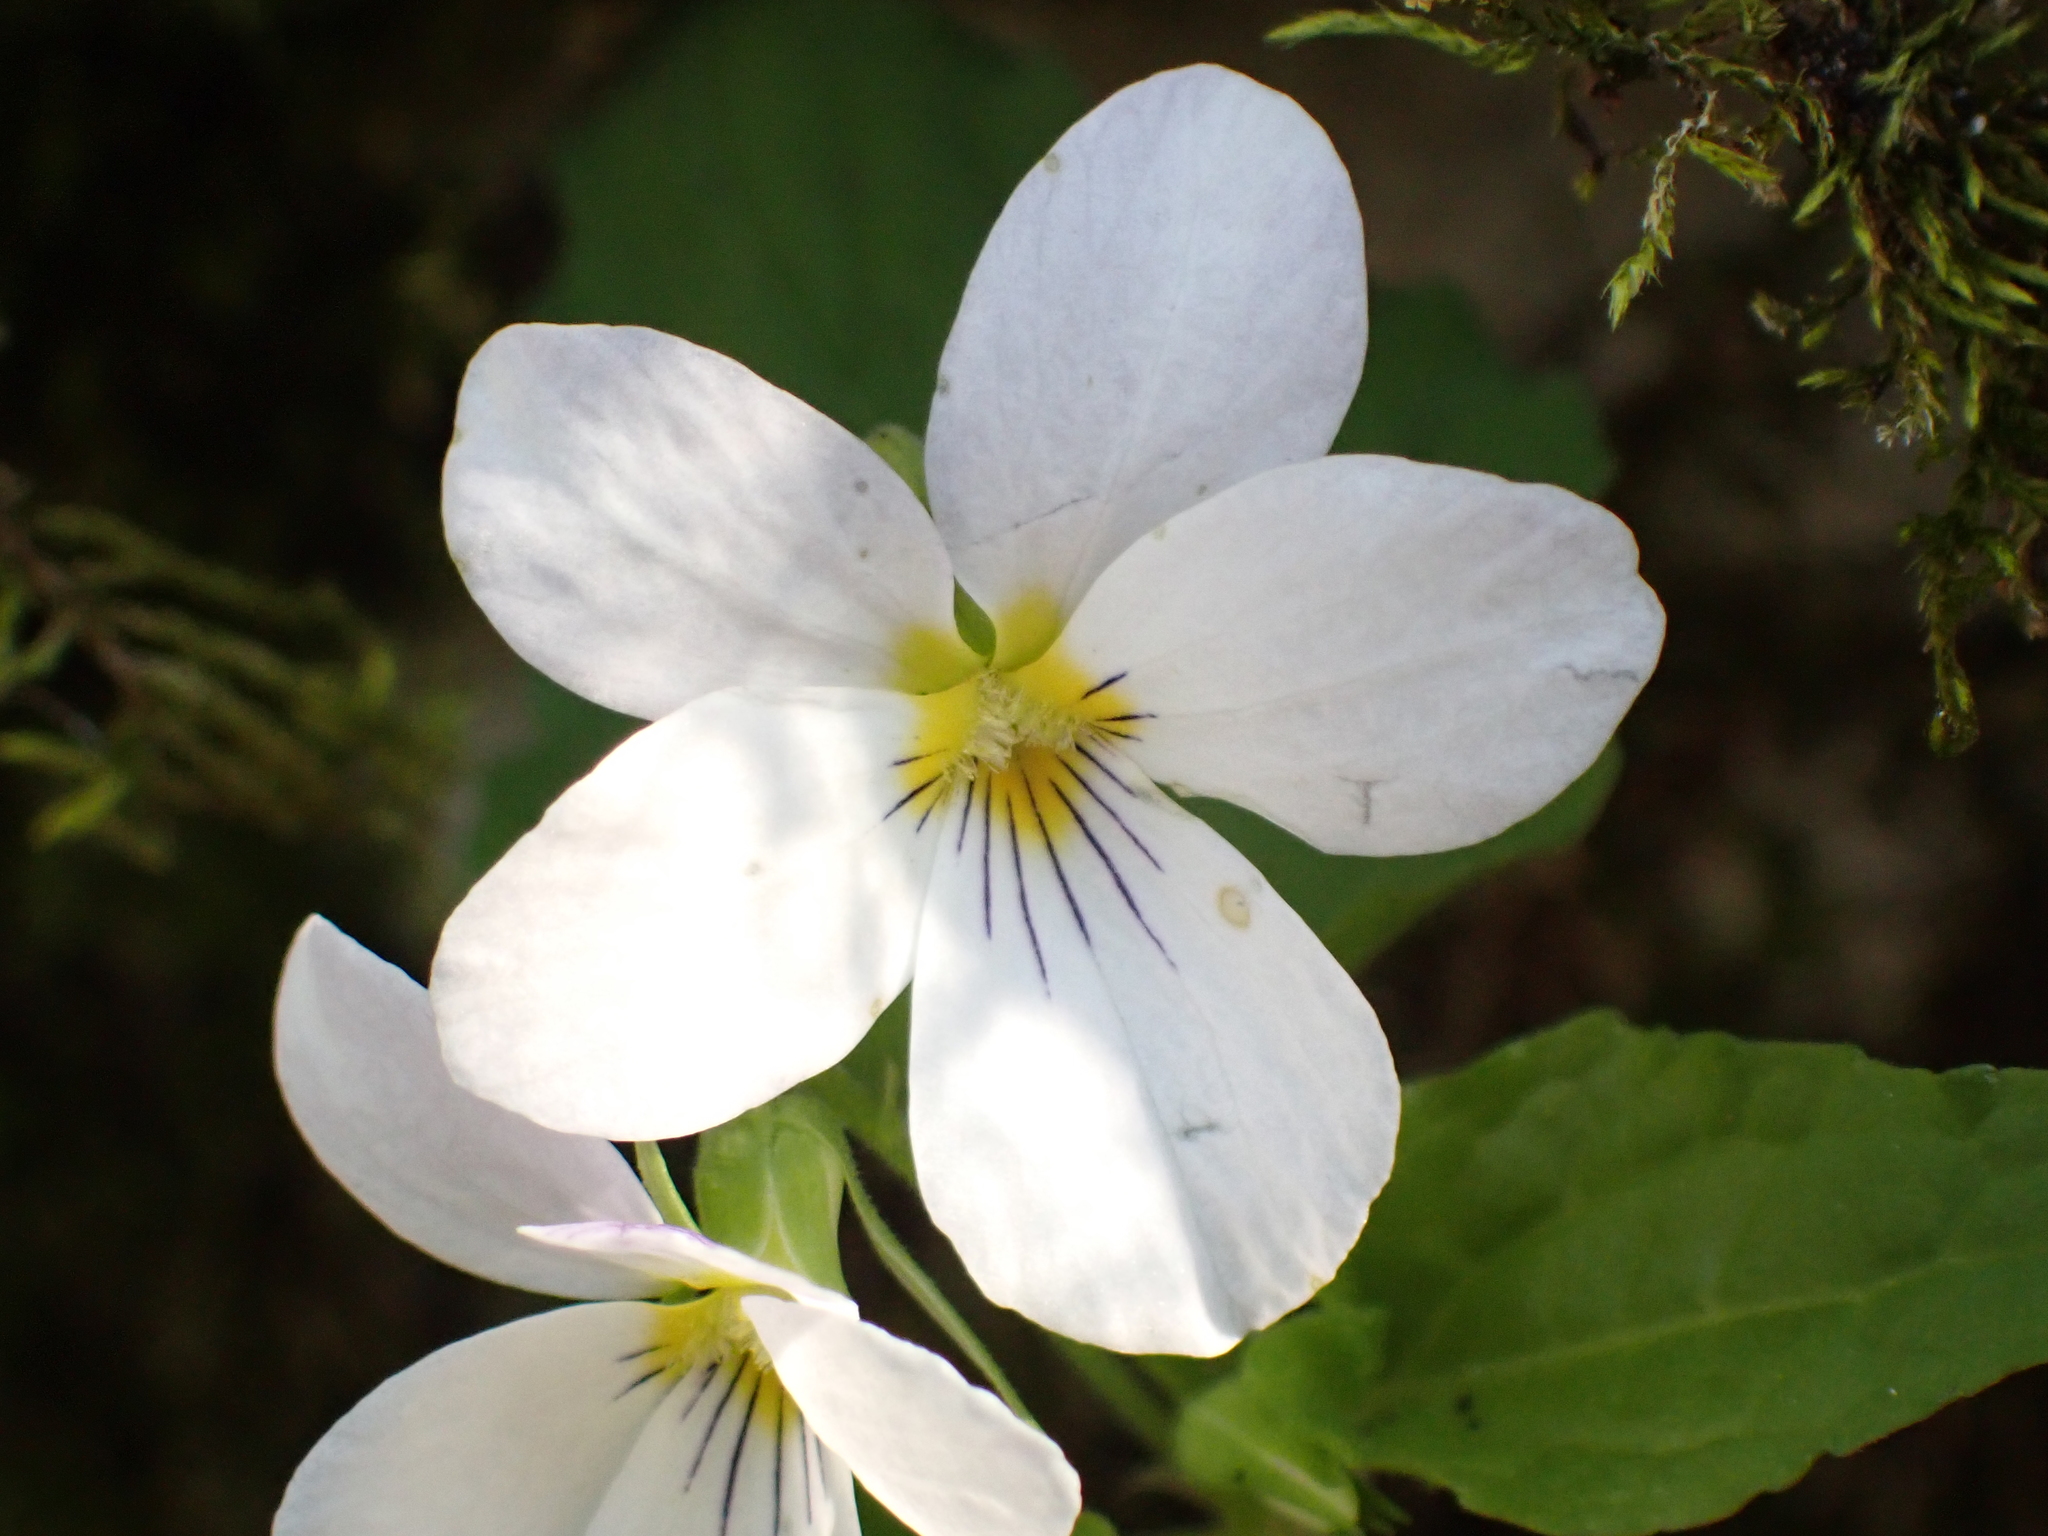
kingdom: Plantae
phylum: Tracheophyta
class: Magnoliopsida
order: Malpighiales
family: Violaceae
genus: Viola
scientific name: Viola canadensis
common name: Canada violet
